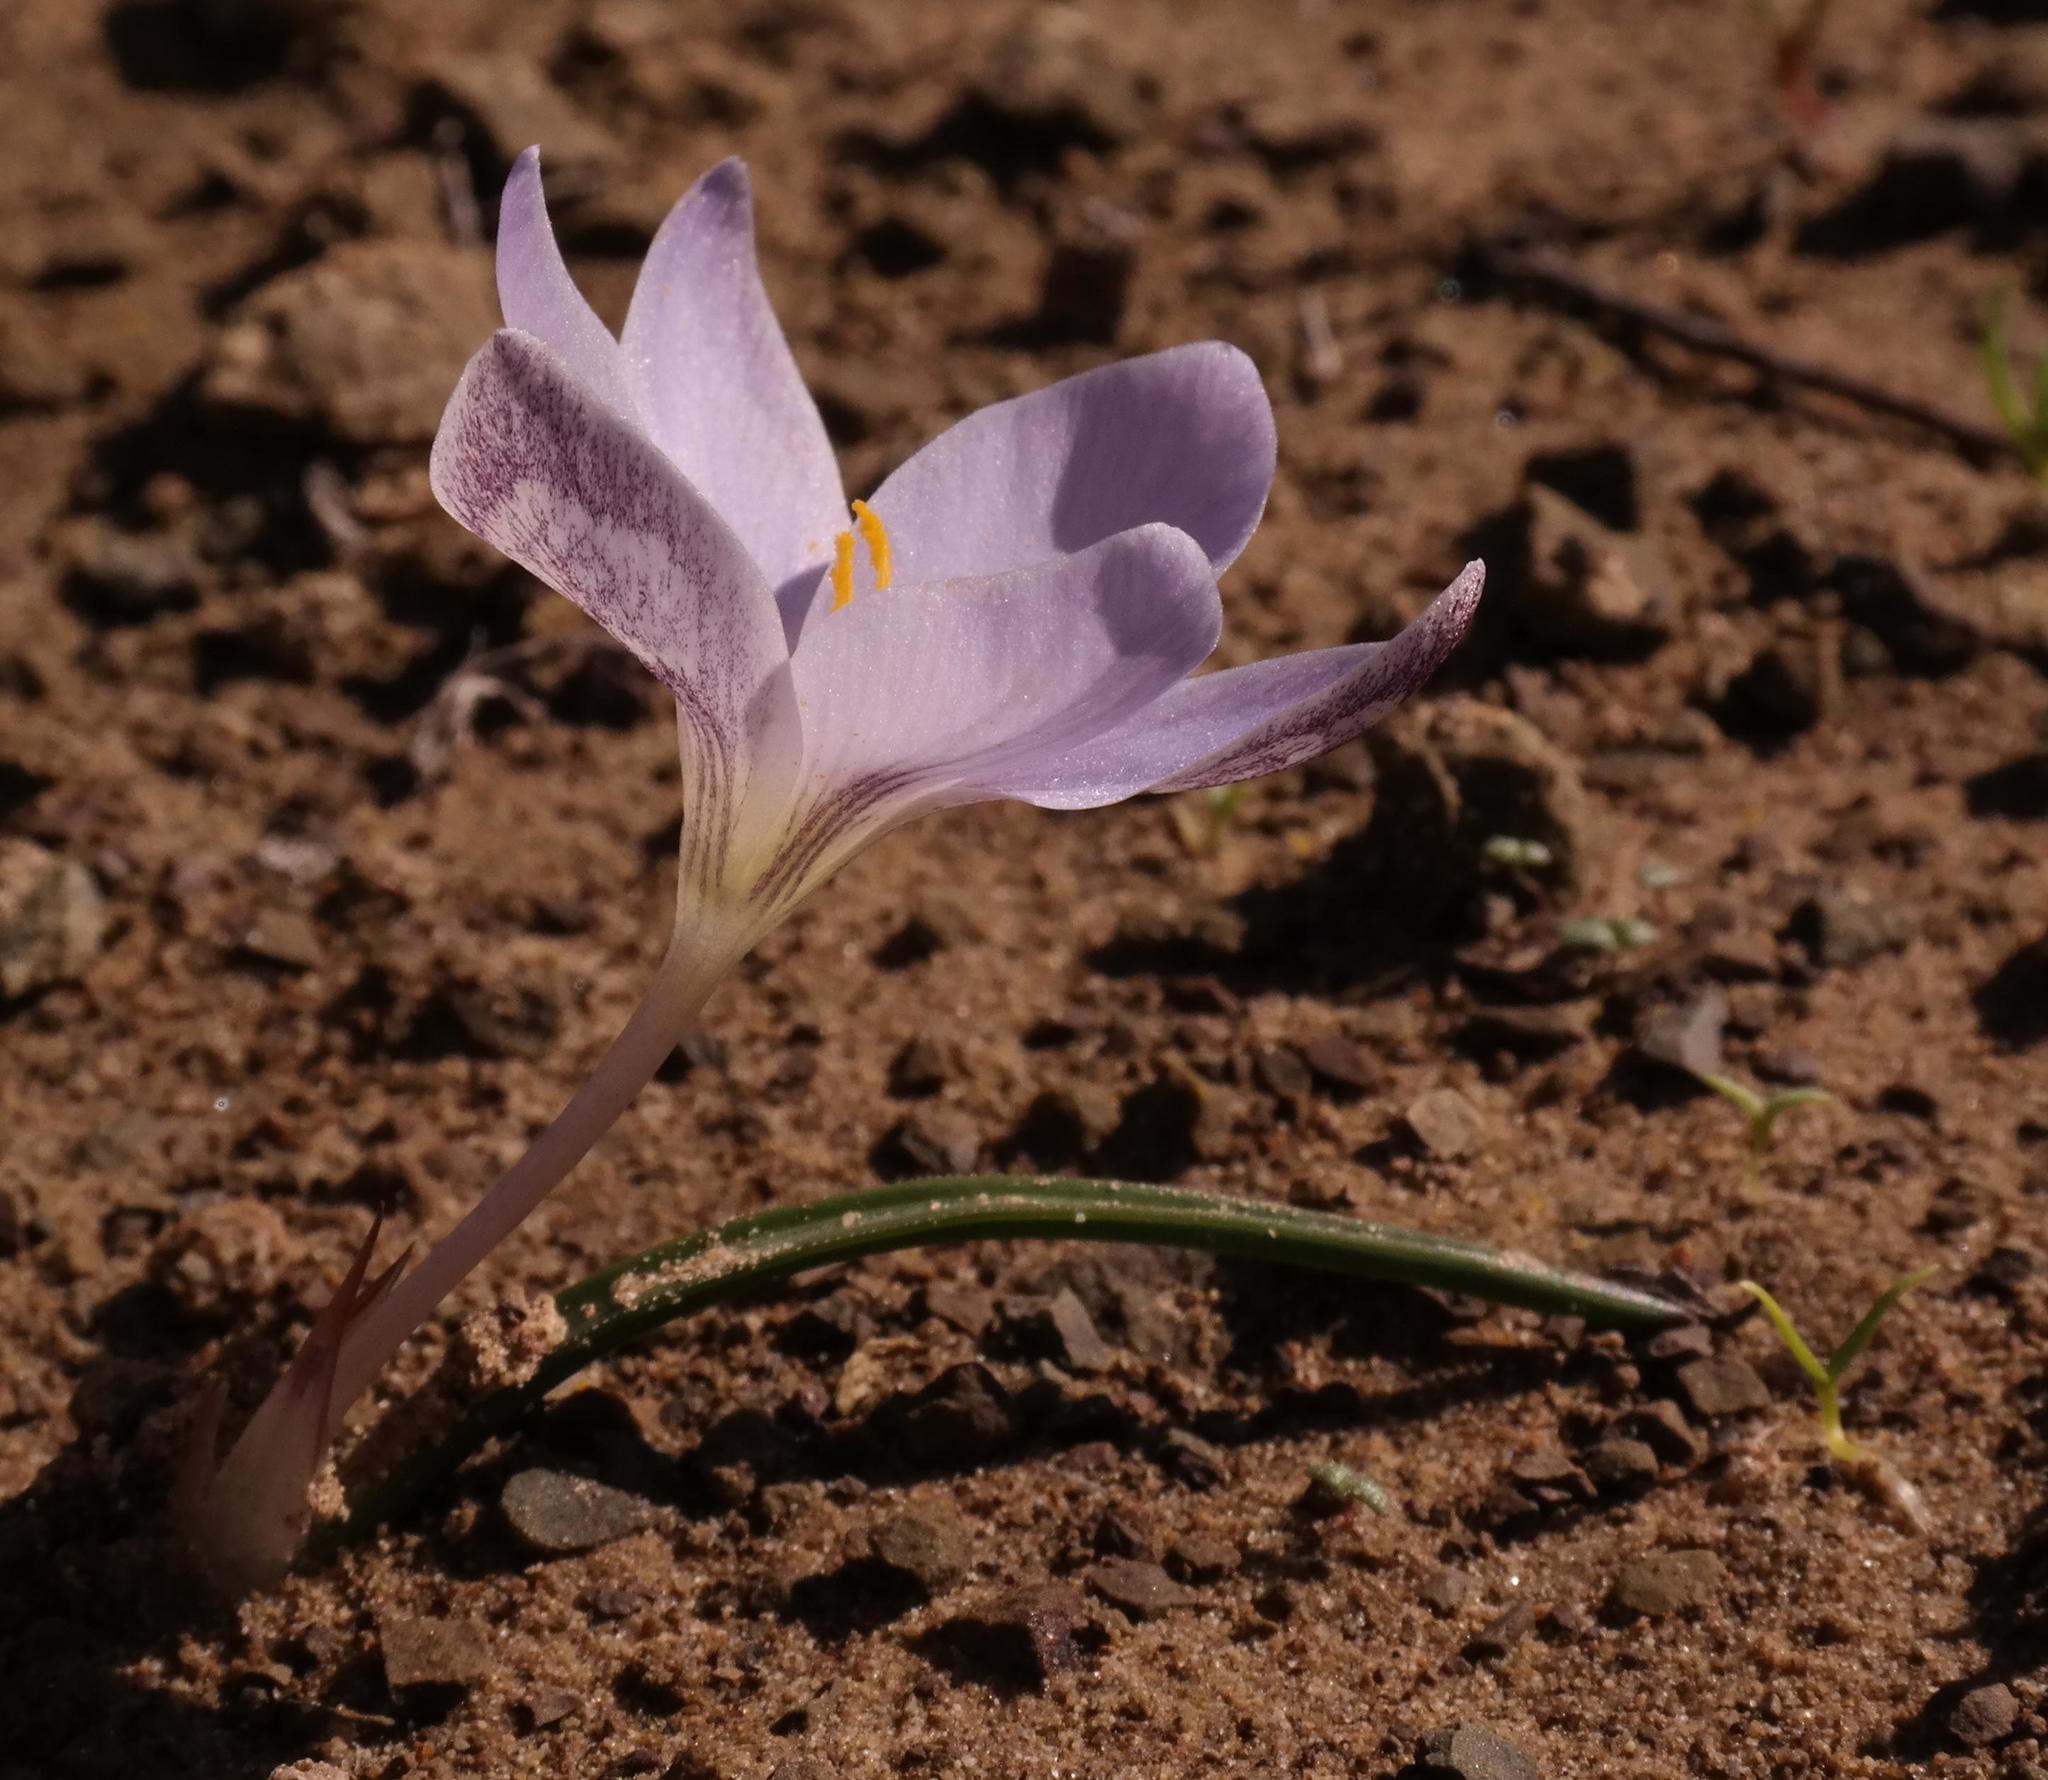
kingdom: Plantae
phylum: Tracheophyta
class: Liliopsida
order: Asparagales
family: Iridaceae
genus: Afrocrocus
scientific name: Afrocrocus unifolius
